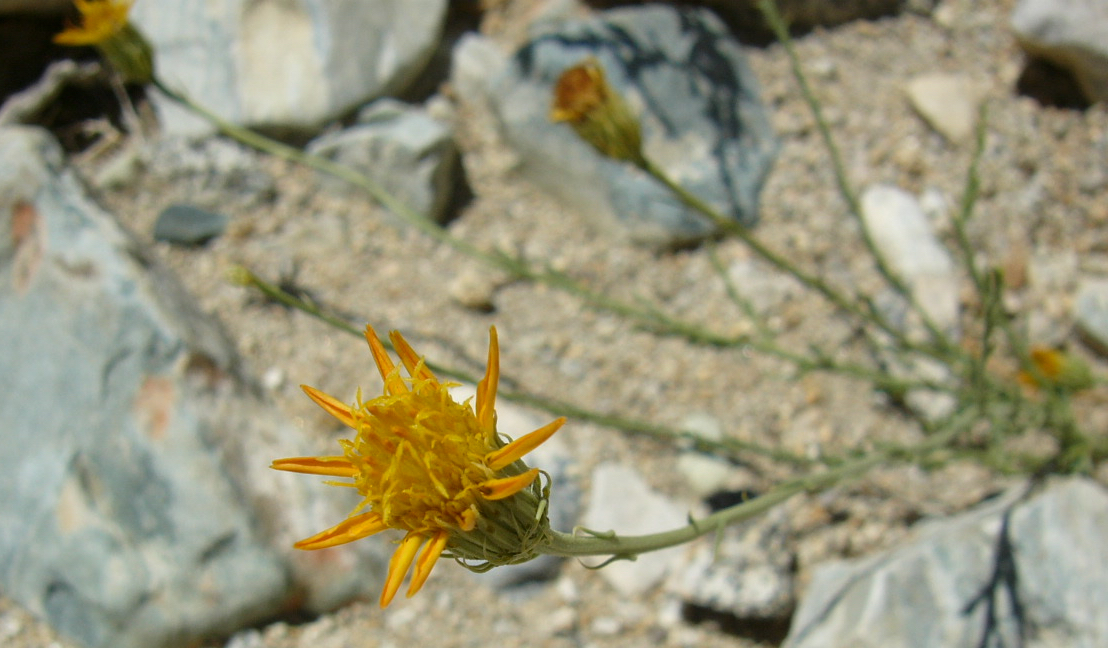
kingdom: Plantae
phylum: Tracheophyta
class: Magnoliopsida
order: Asterales
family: Asteraceae
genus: Adenophyllum
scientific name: Adenophyllum cooperi
